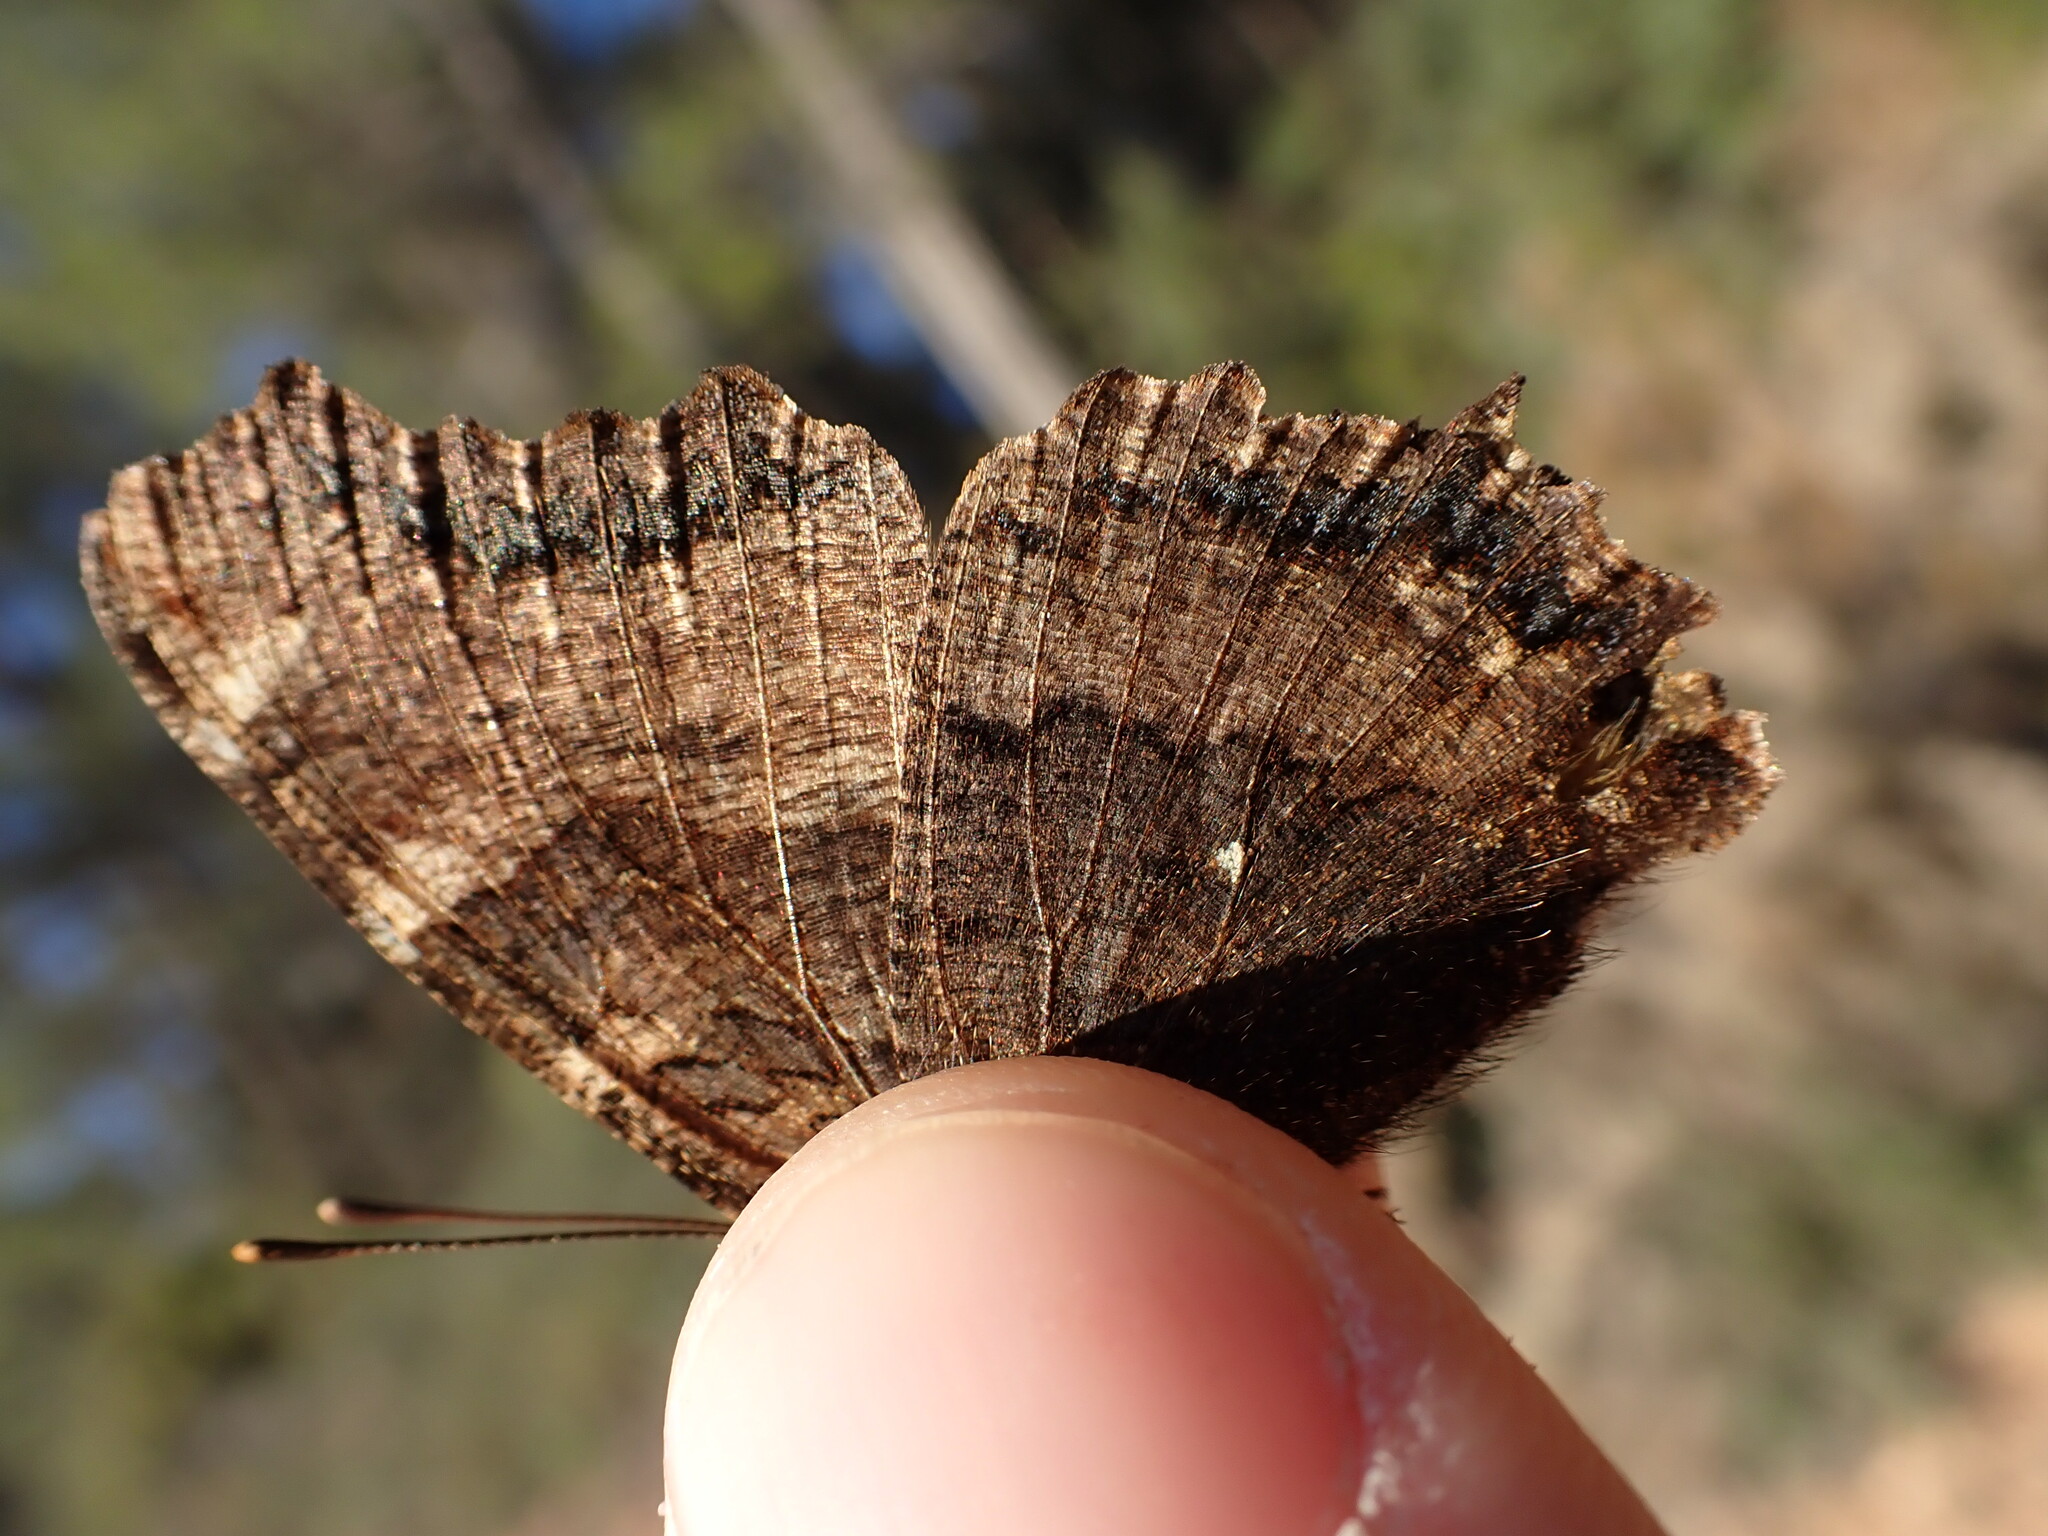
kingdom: Animalia
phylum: Arthropoda
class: Insecta
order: Lepidoptera
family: Nymphalidae
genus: Nymphalis
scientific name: Nymphalis polychloros
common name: Large tortoiseshell
